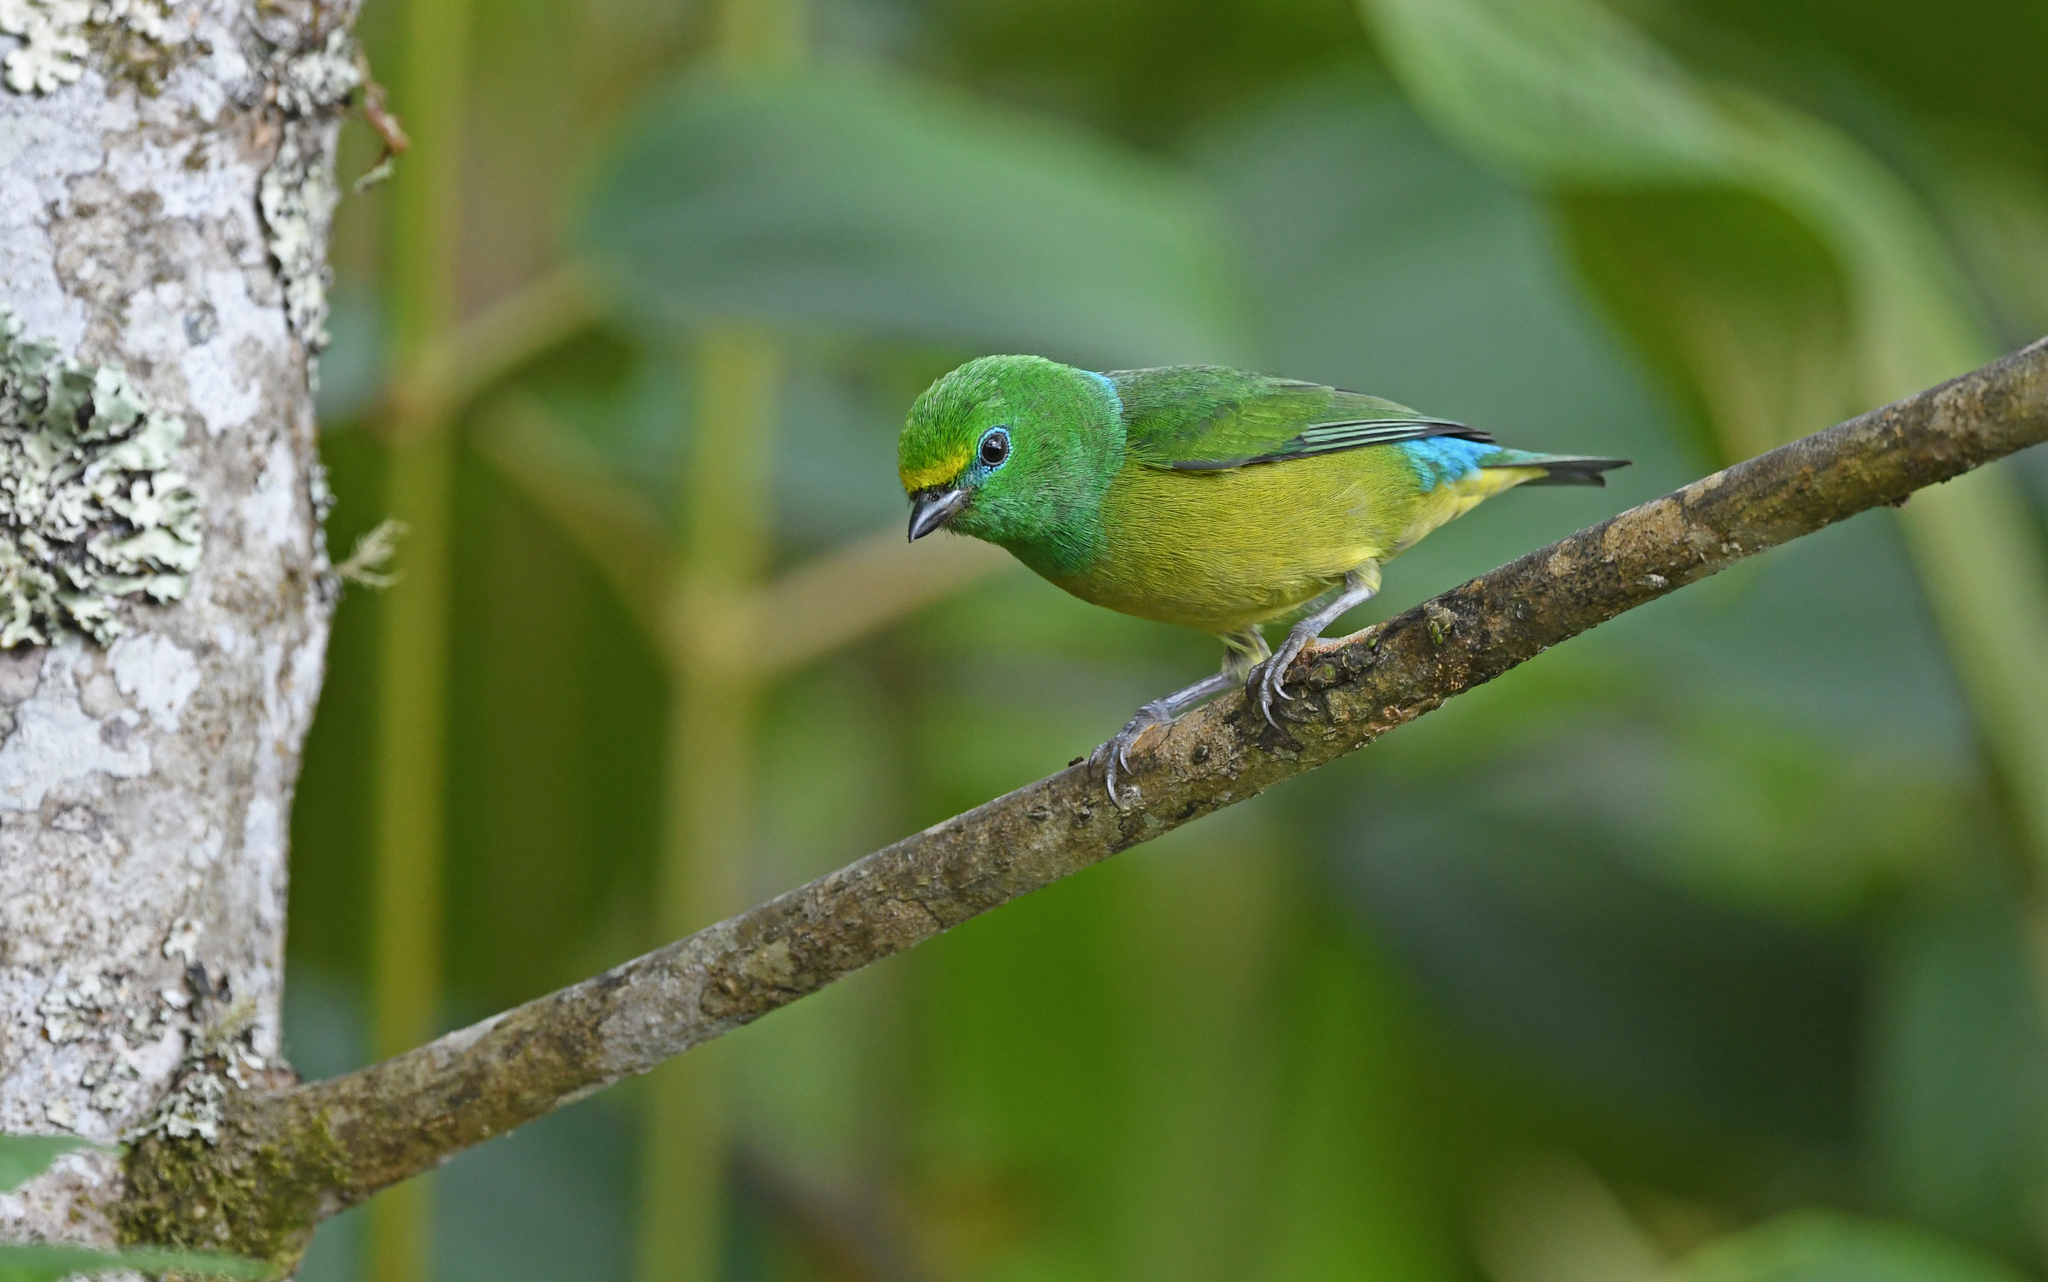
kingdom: Animalia
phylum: Chordata
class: Aves
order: Passeriformes
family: Fringillidae
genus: Chlorophonia
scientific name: Chlorophonia cyanea
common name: Blue-naped chlorophonia
